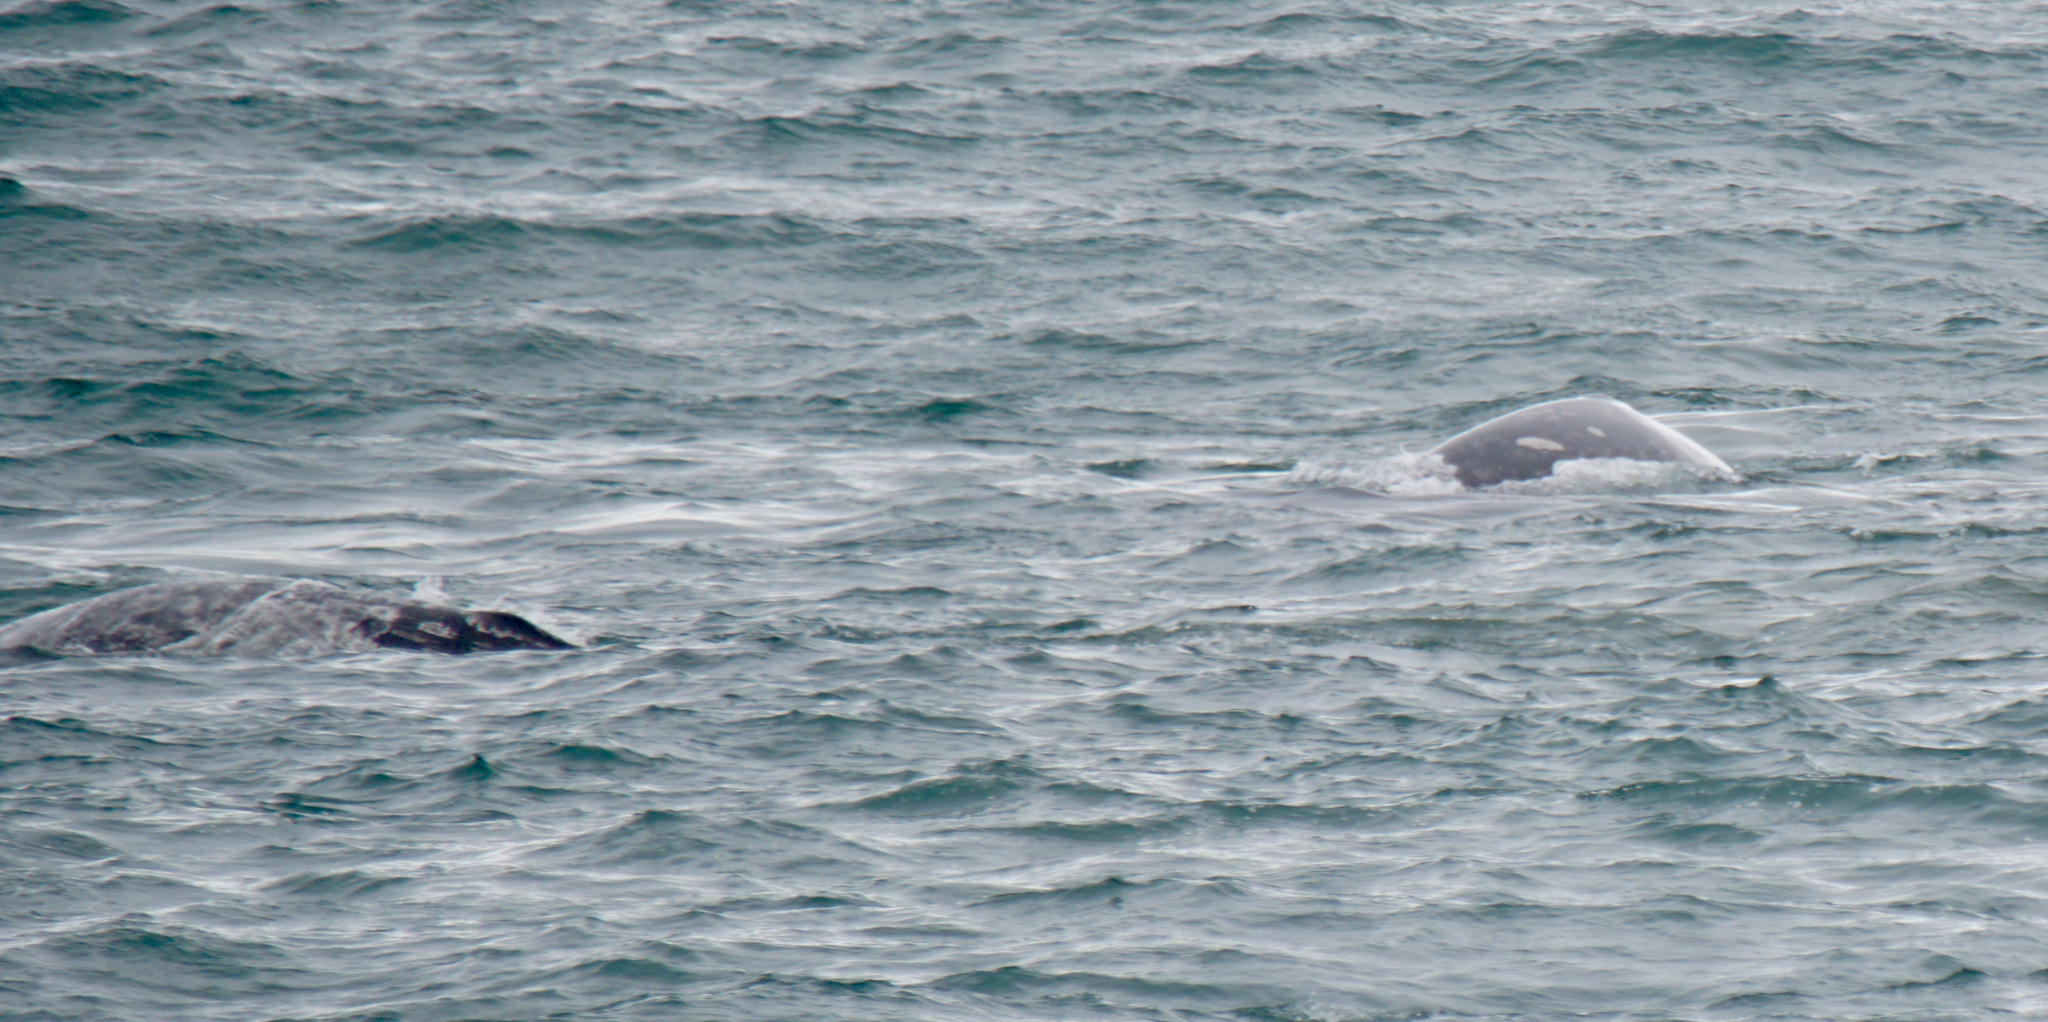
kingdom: Animalia
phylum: Chordata
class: Mammalia
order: Cetacea
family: Eschrichtiidae
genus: Eschrichtius
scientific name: Eschrichtius robustus
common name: Gray whale
